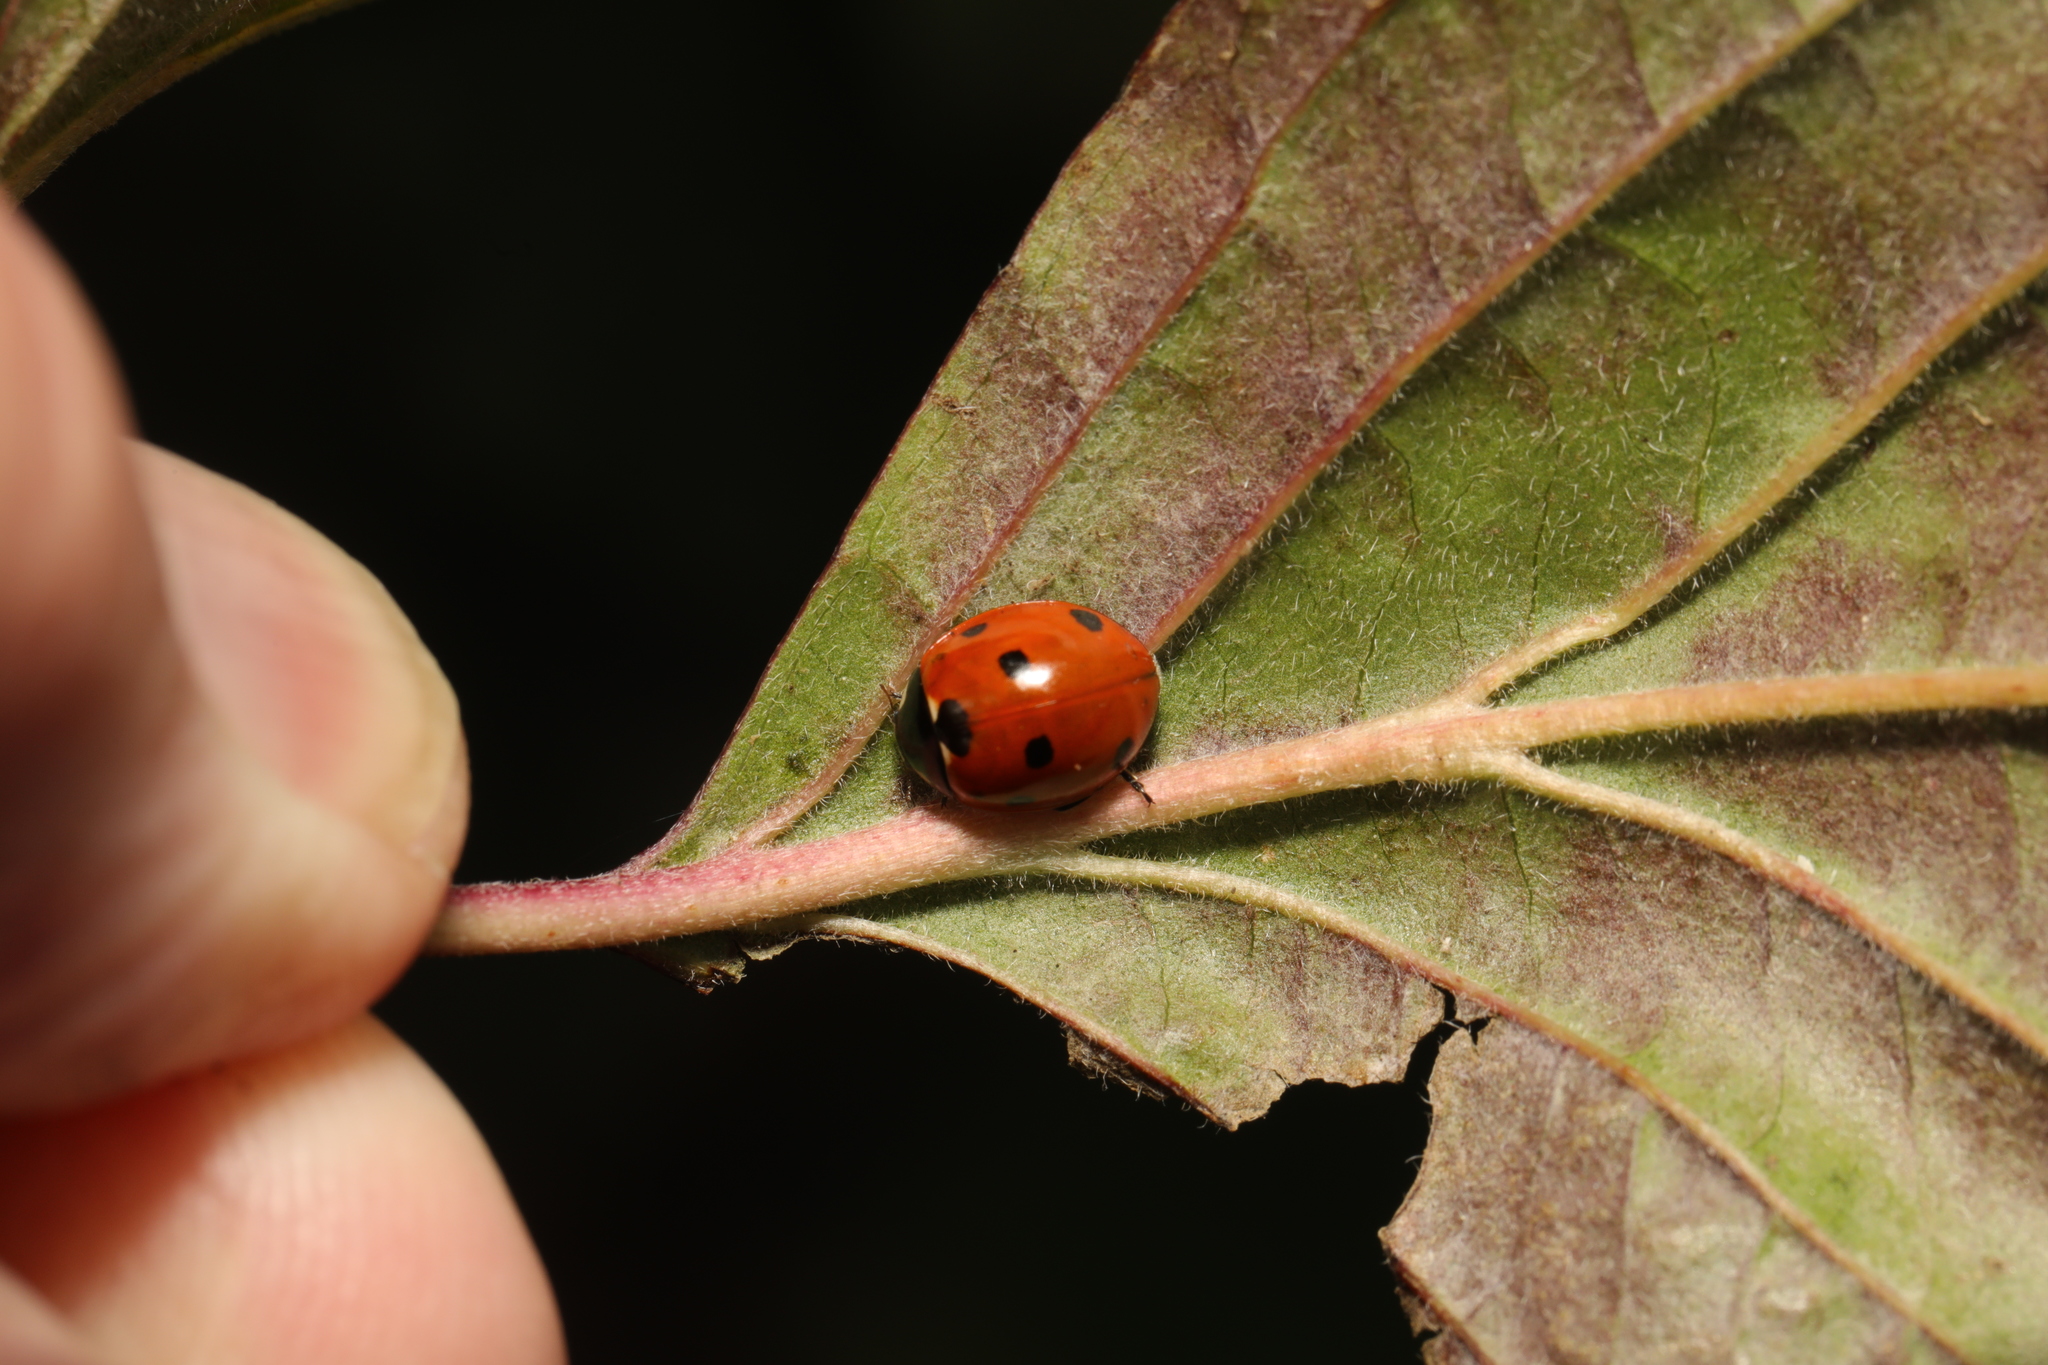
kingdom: Animalia
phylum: Arthropoda
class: Insecta
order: Coleoptera
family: Coccinellidae
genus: Coccinella
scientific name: Coccinella septempunctata
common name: Sevenspotted lady beetle
